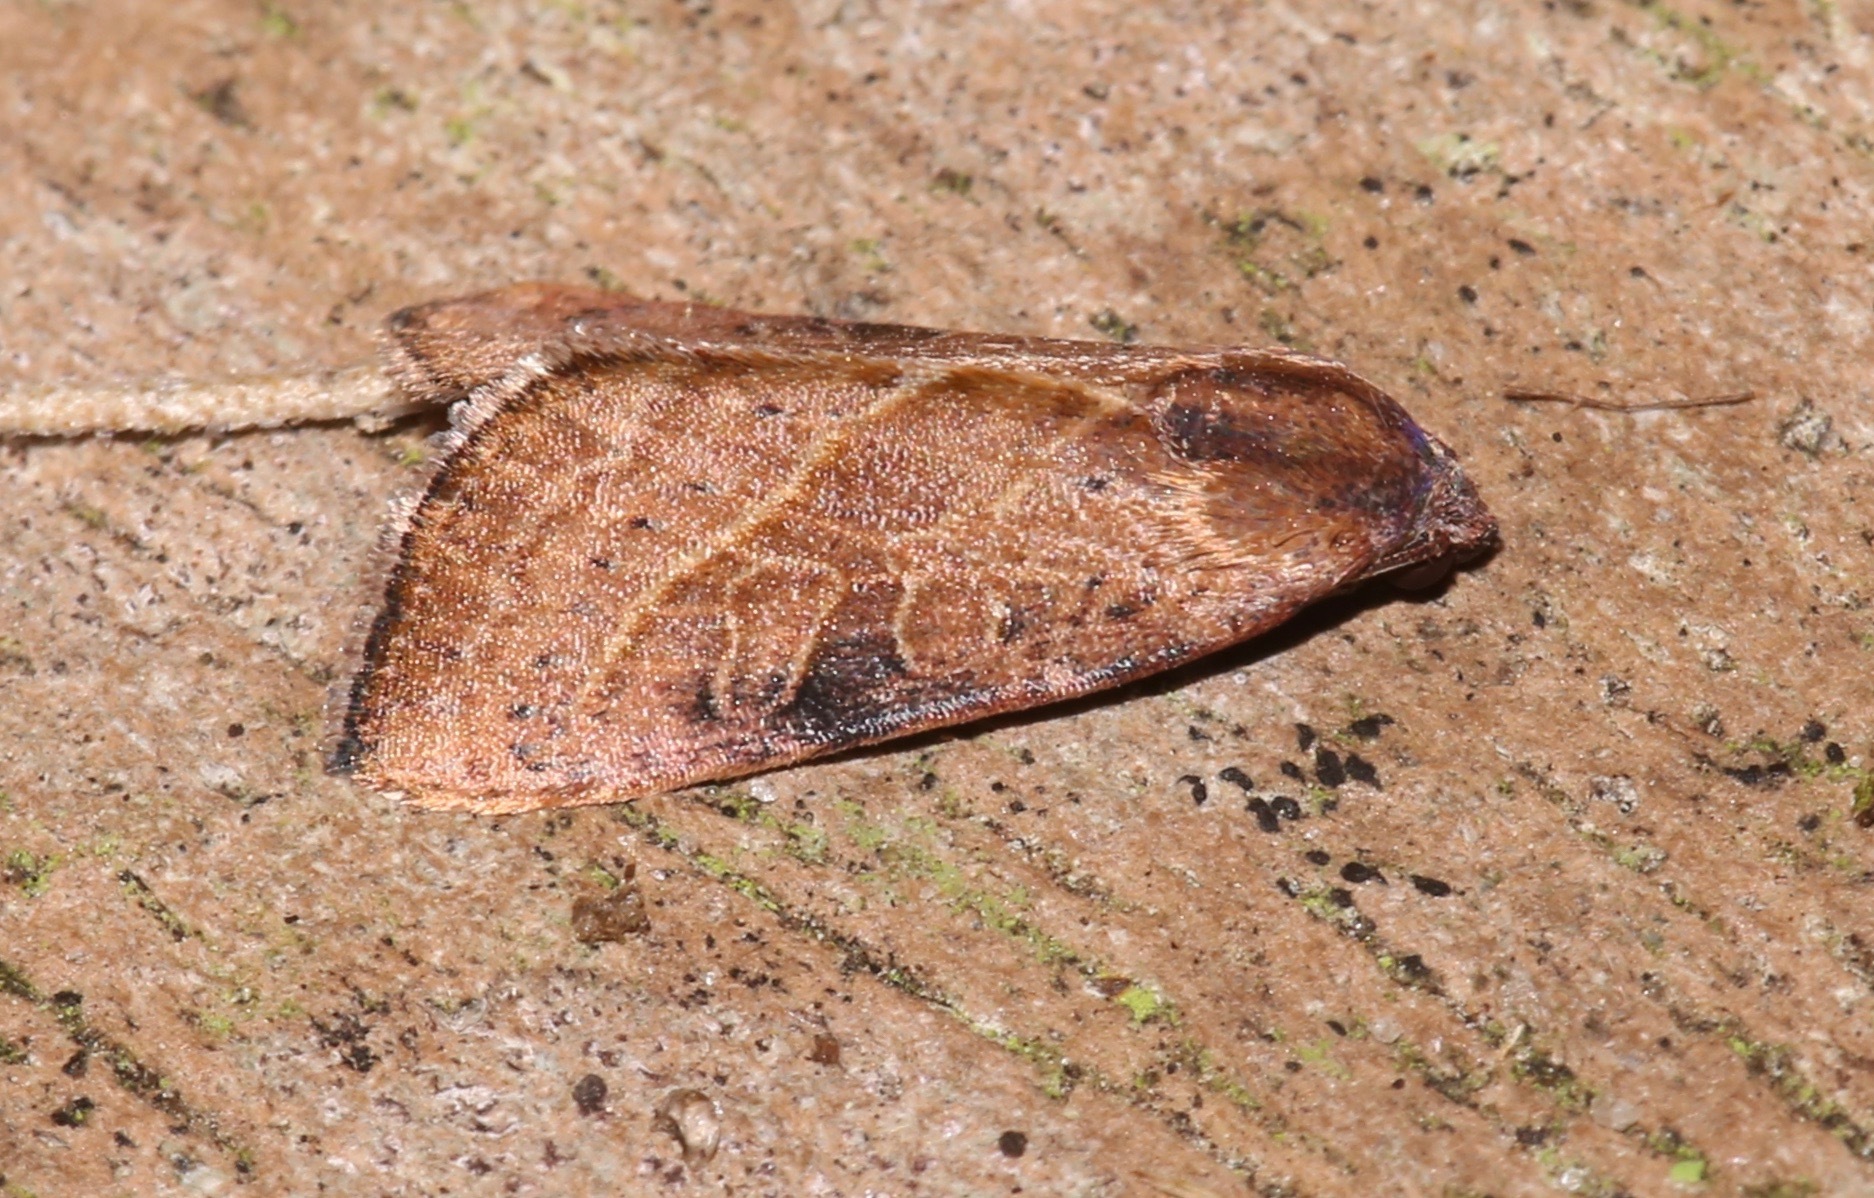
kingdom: Animalia
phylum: Arthropoda
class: Insecta
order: Lepidoptera
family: Noctuidae
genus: Galgula
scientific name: Galgula partita
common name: Wedgeling
